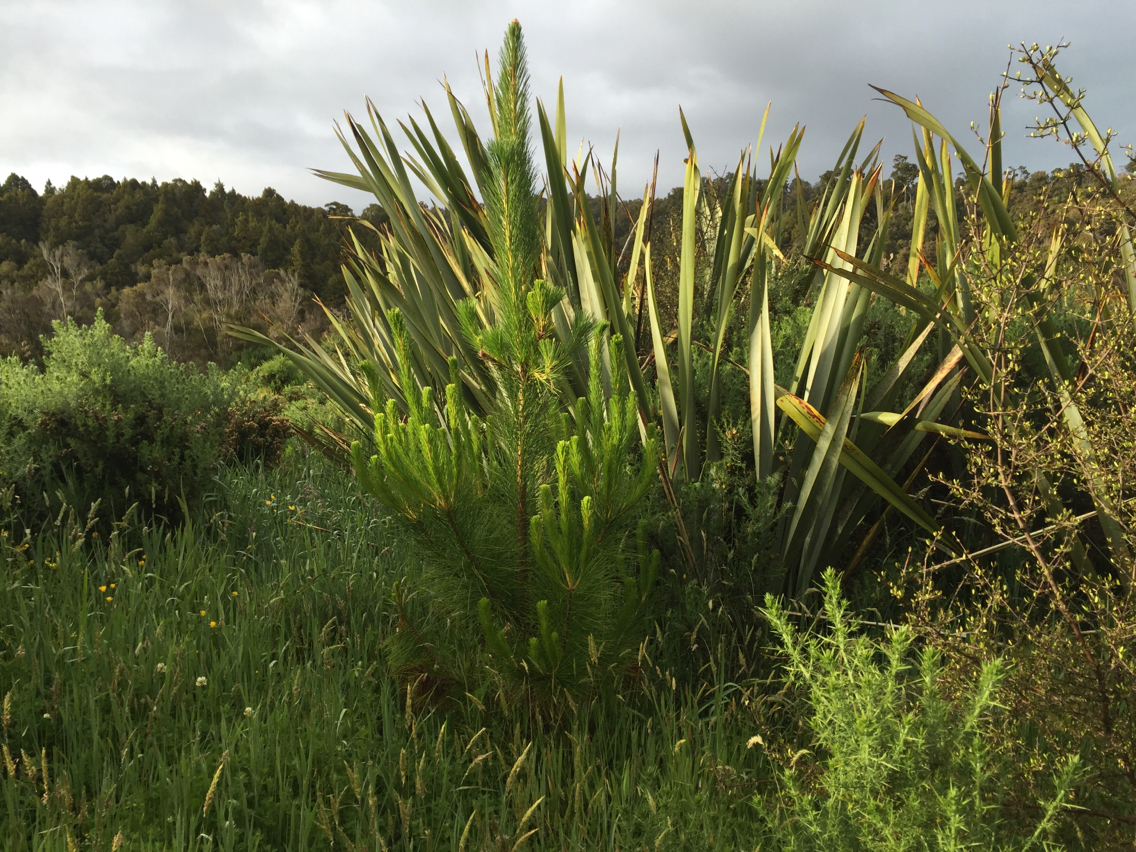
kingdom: Plantae
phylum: Tracheophyta
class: Pinopsida
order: Pinales
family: Pinaceae
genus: Pinus
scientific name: Pinus
